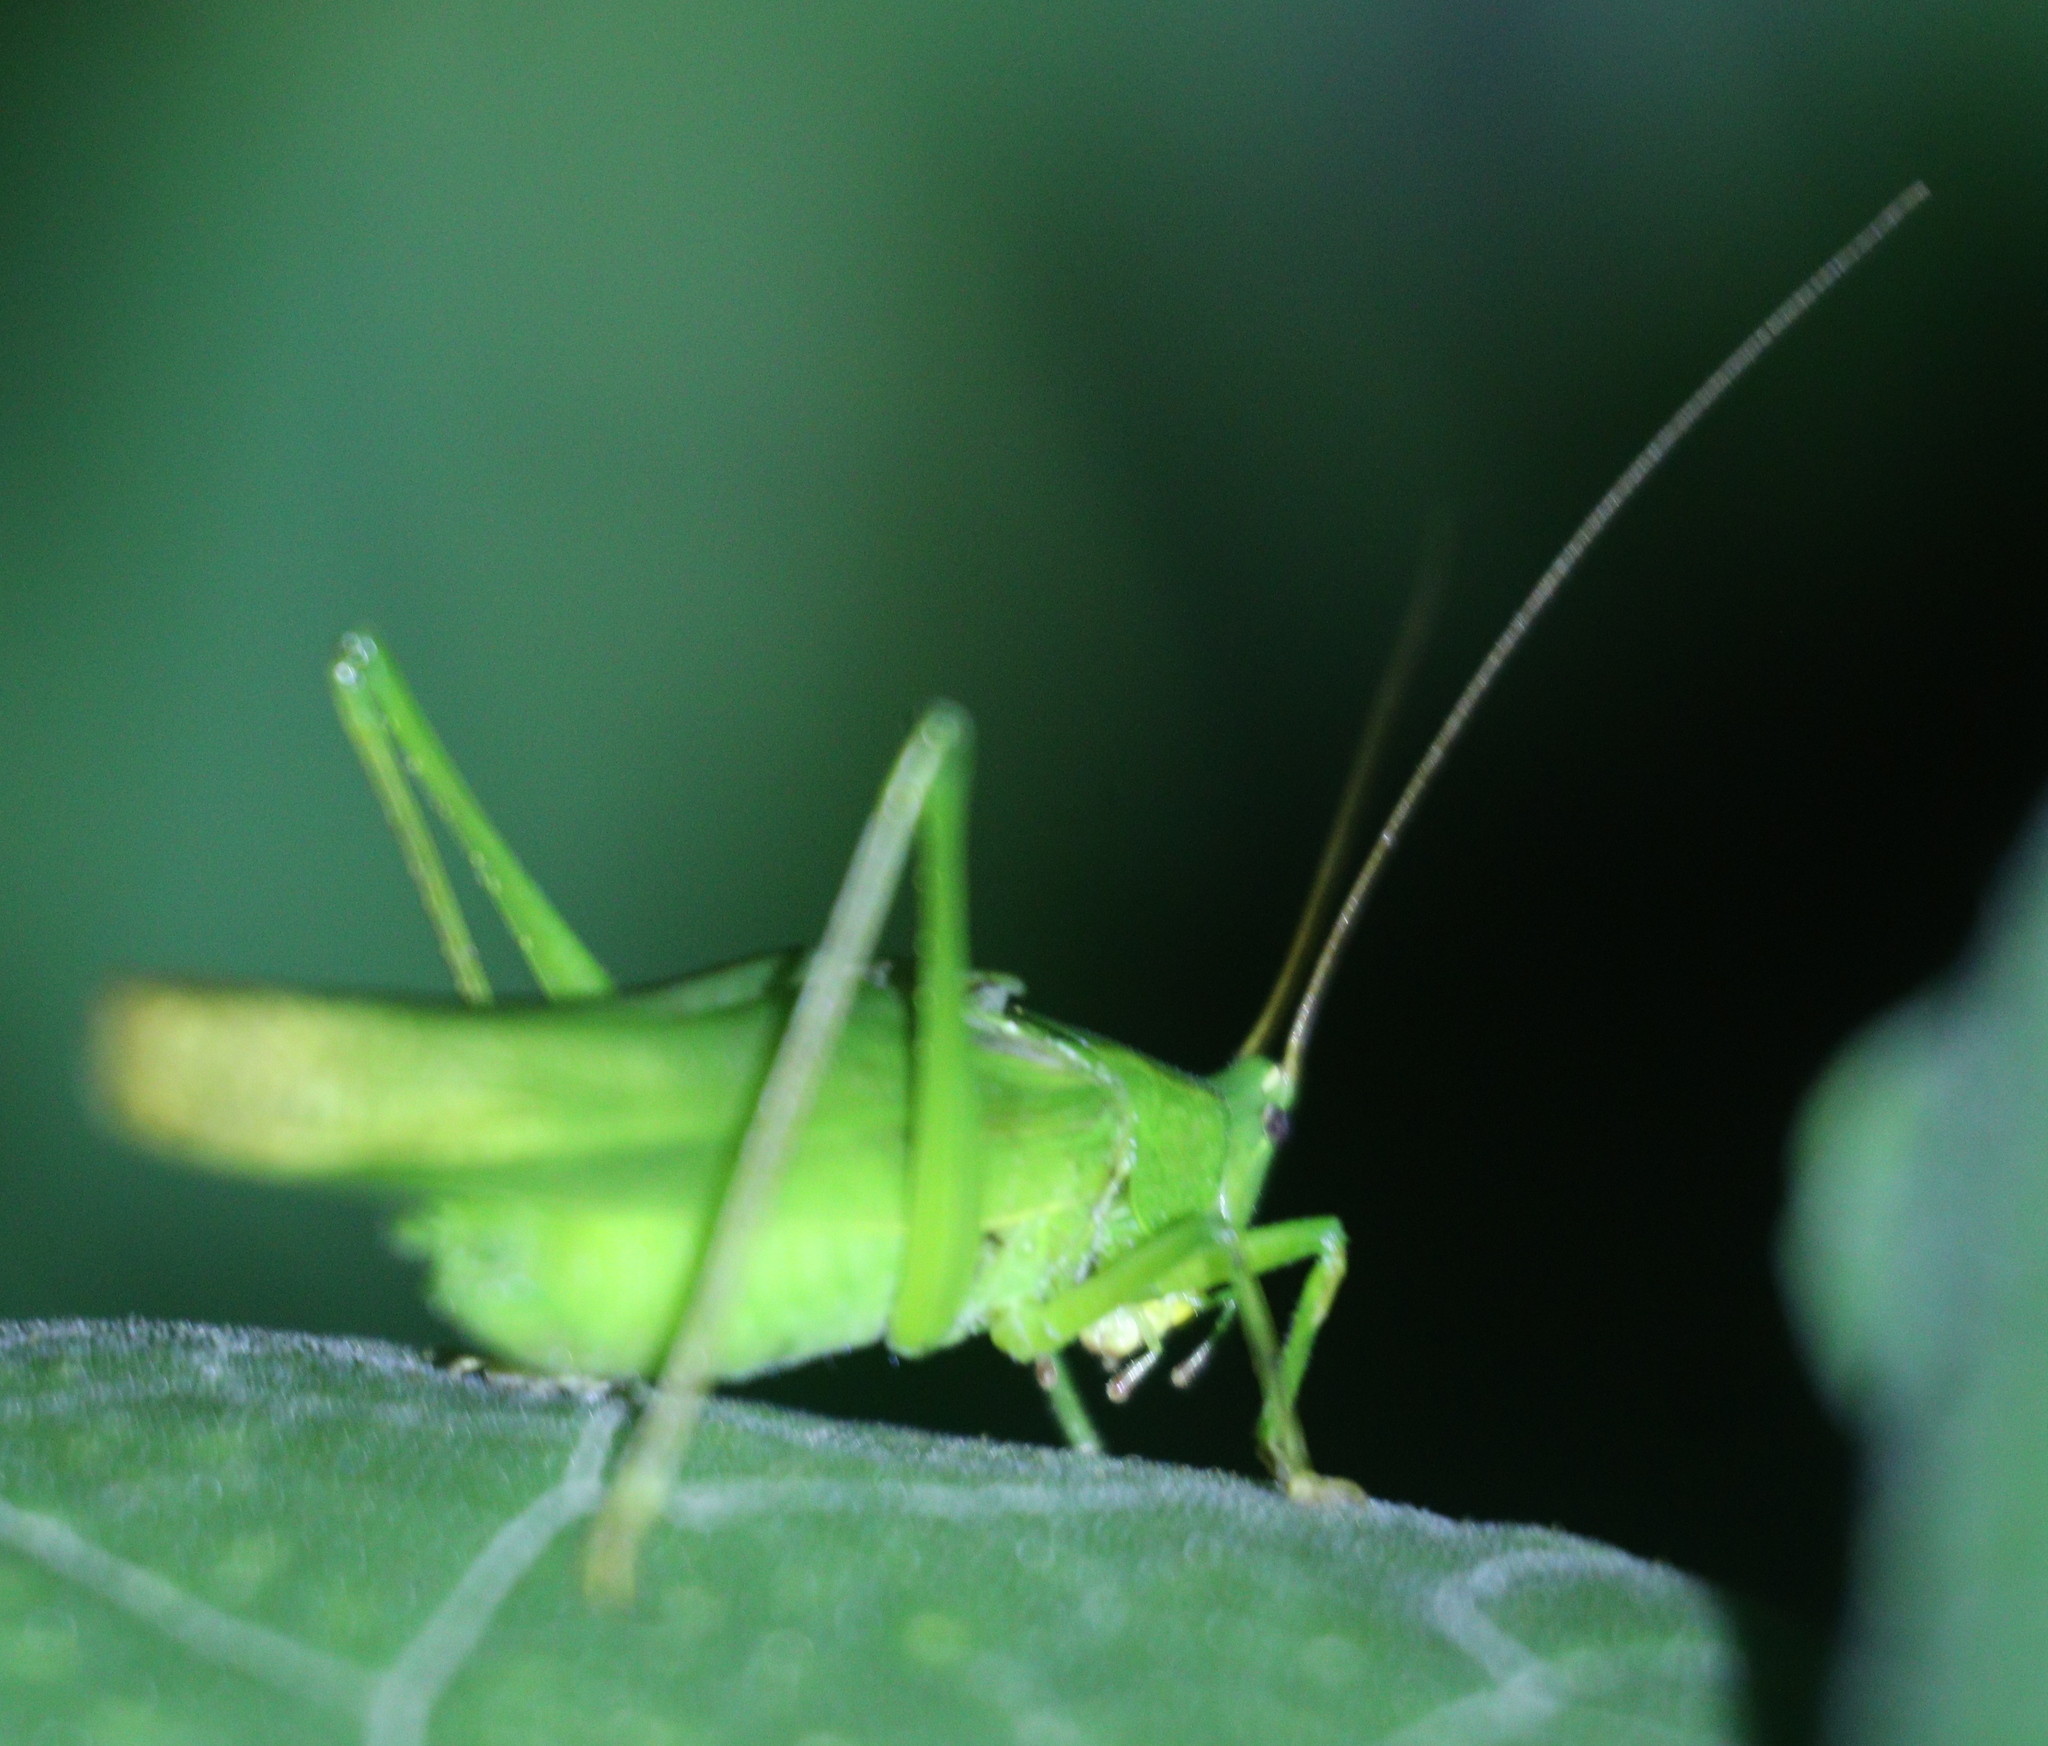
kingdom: Animalia
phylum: Arthropoda
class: Insecta
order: Orthoptera
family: Tettigoniidae
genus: Ruspolia
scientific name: Ruspolia nitidula
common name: Large conehead
